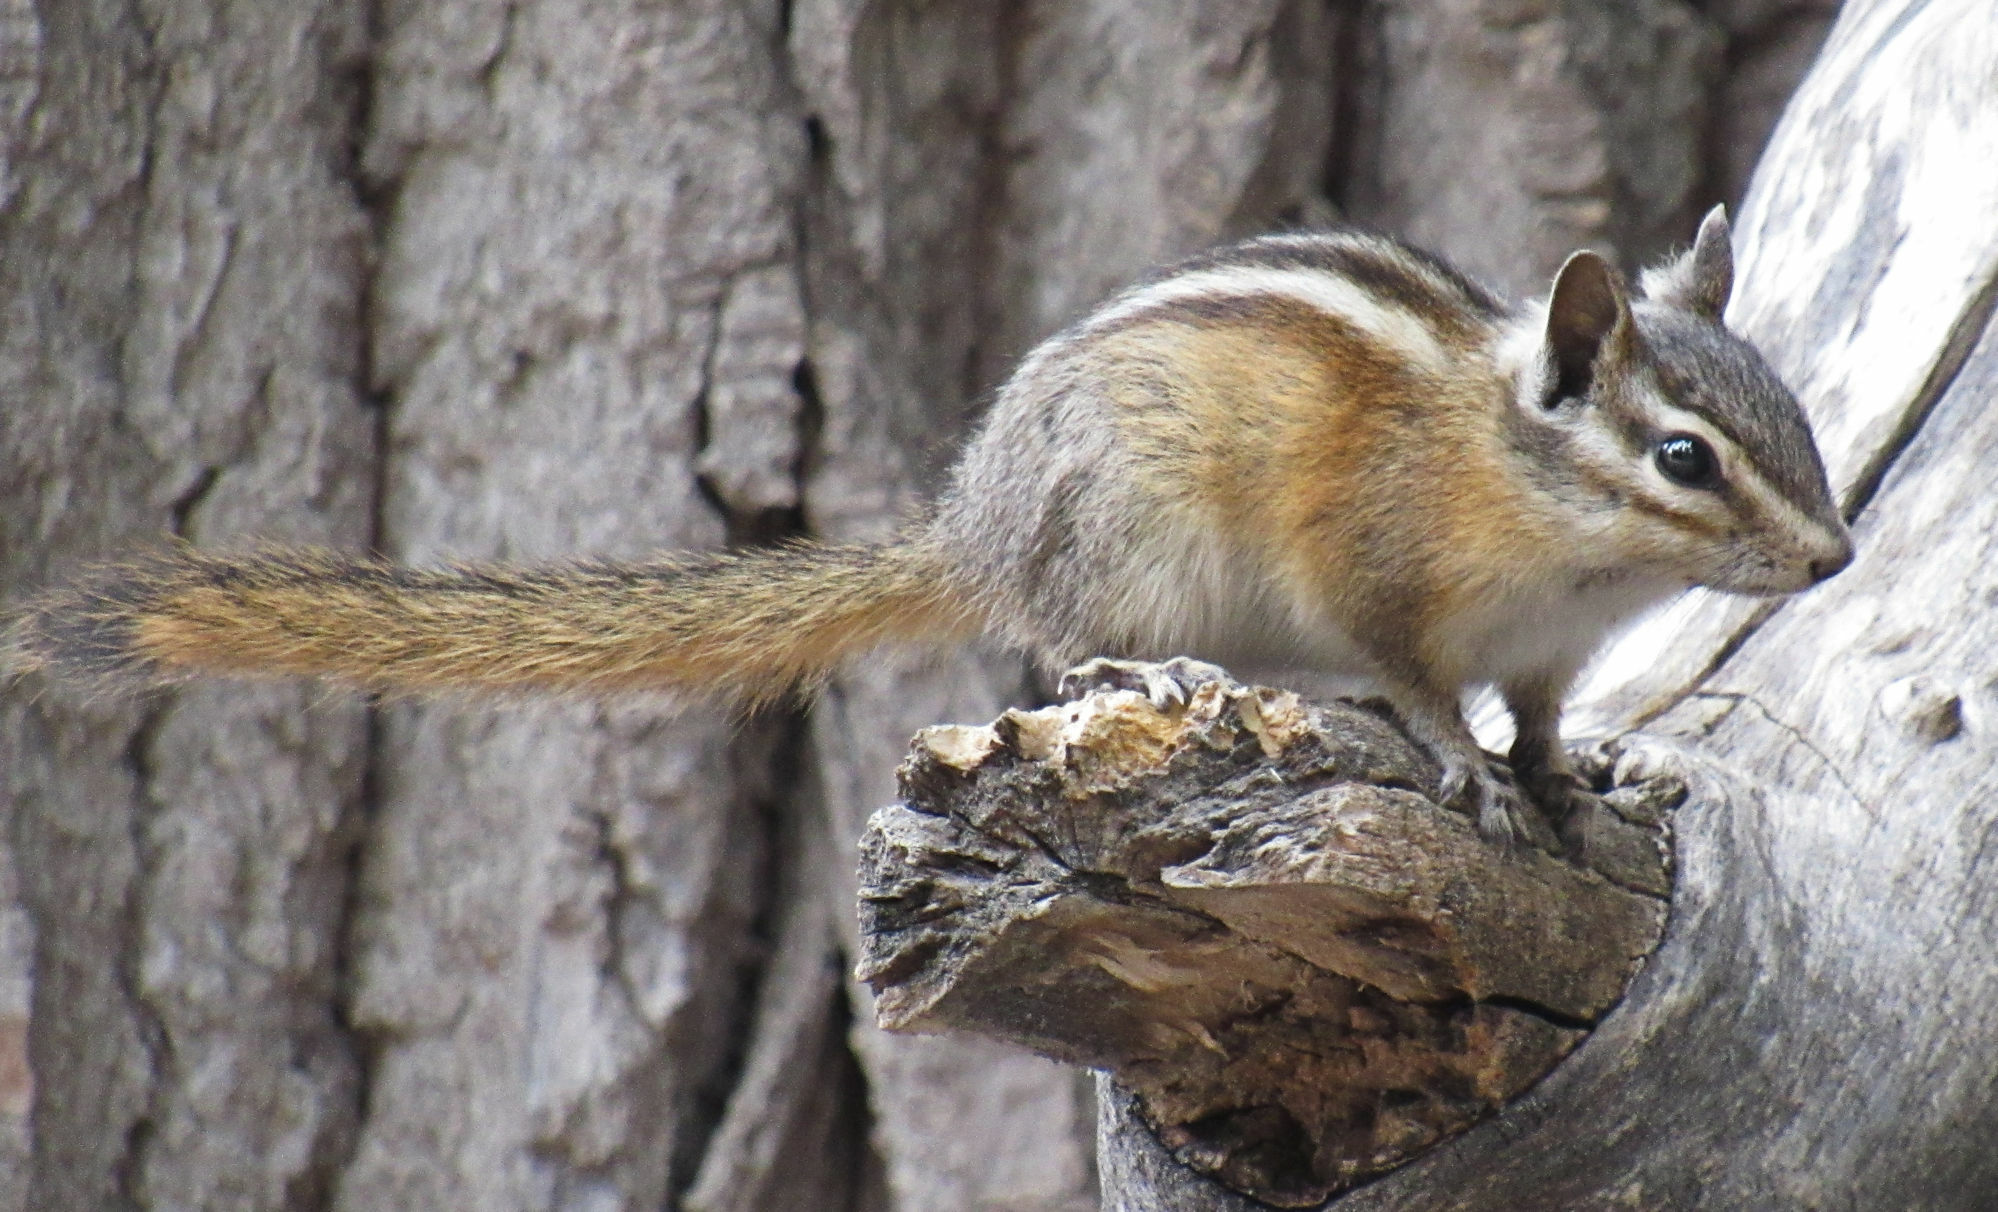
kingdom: Animalia
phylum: Chordata
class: Mammalia
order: Rodentia
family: Sciuridae
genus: Tamias
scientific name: Tamias amoenus
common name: Yellow-pine chipmunk
